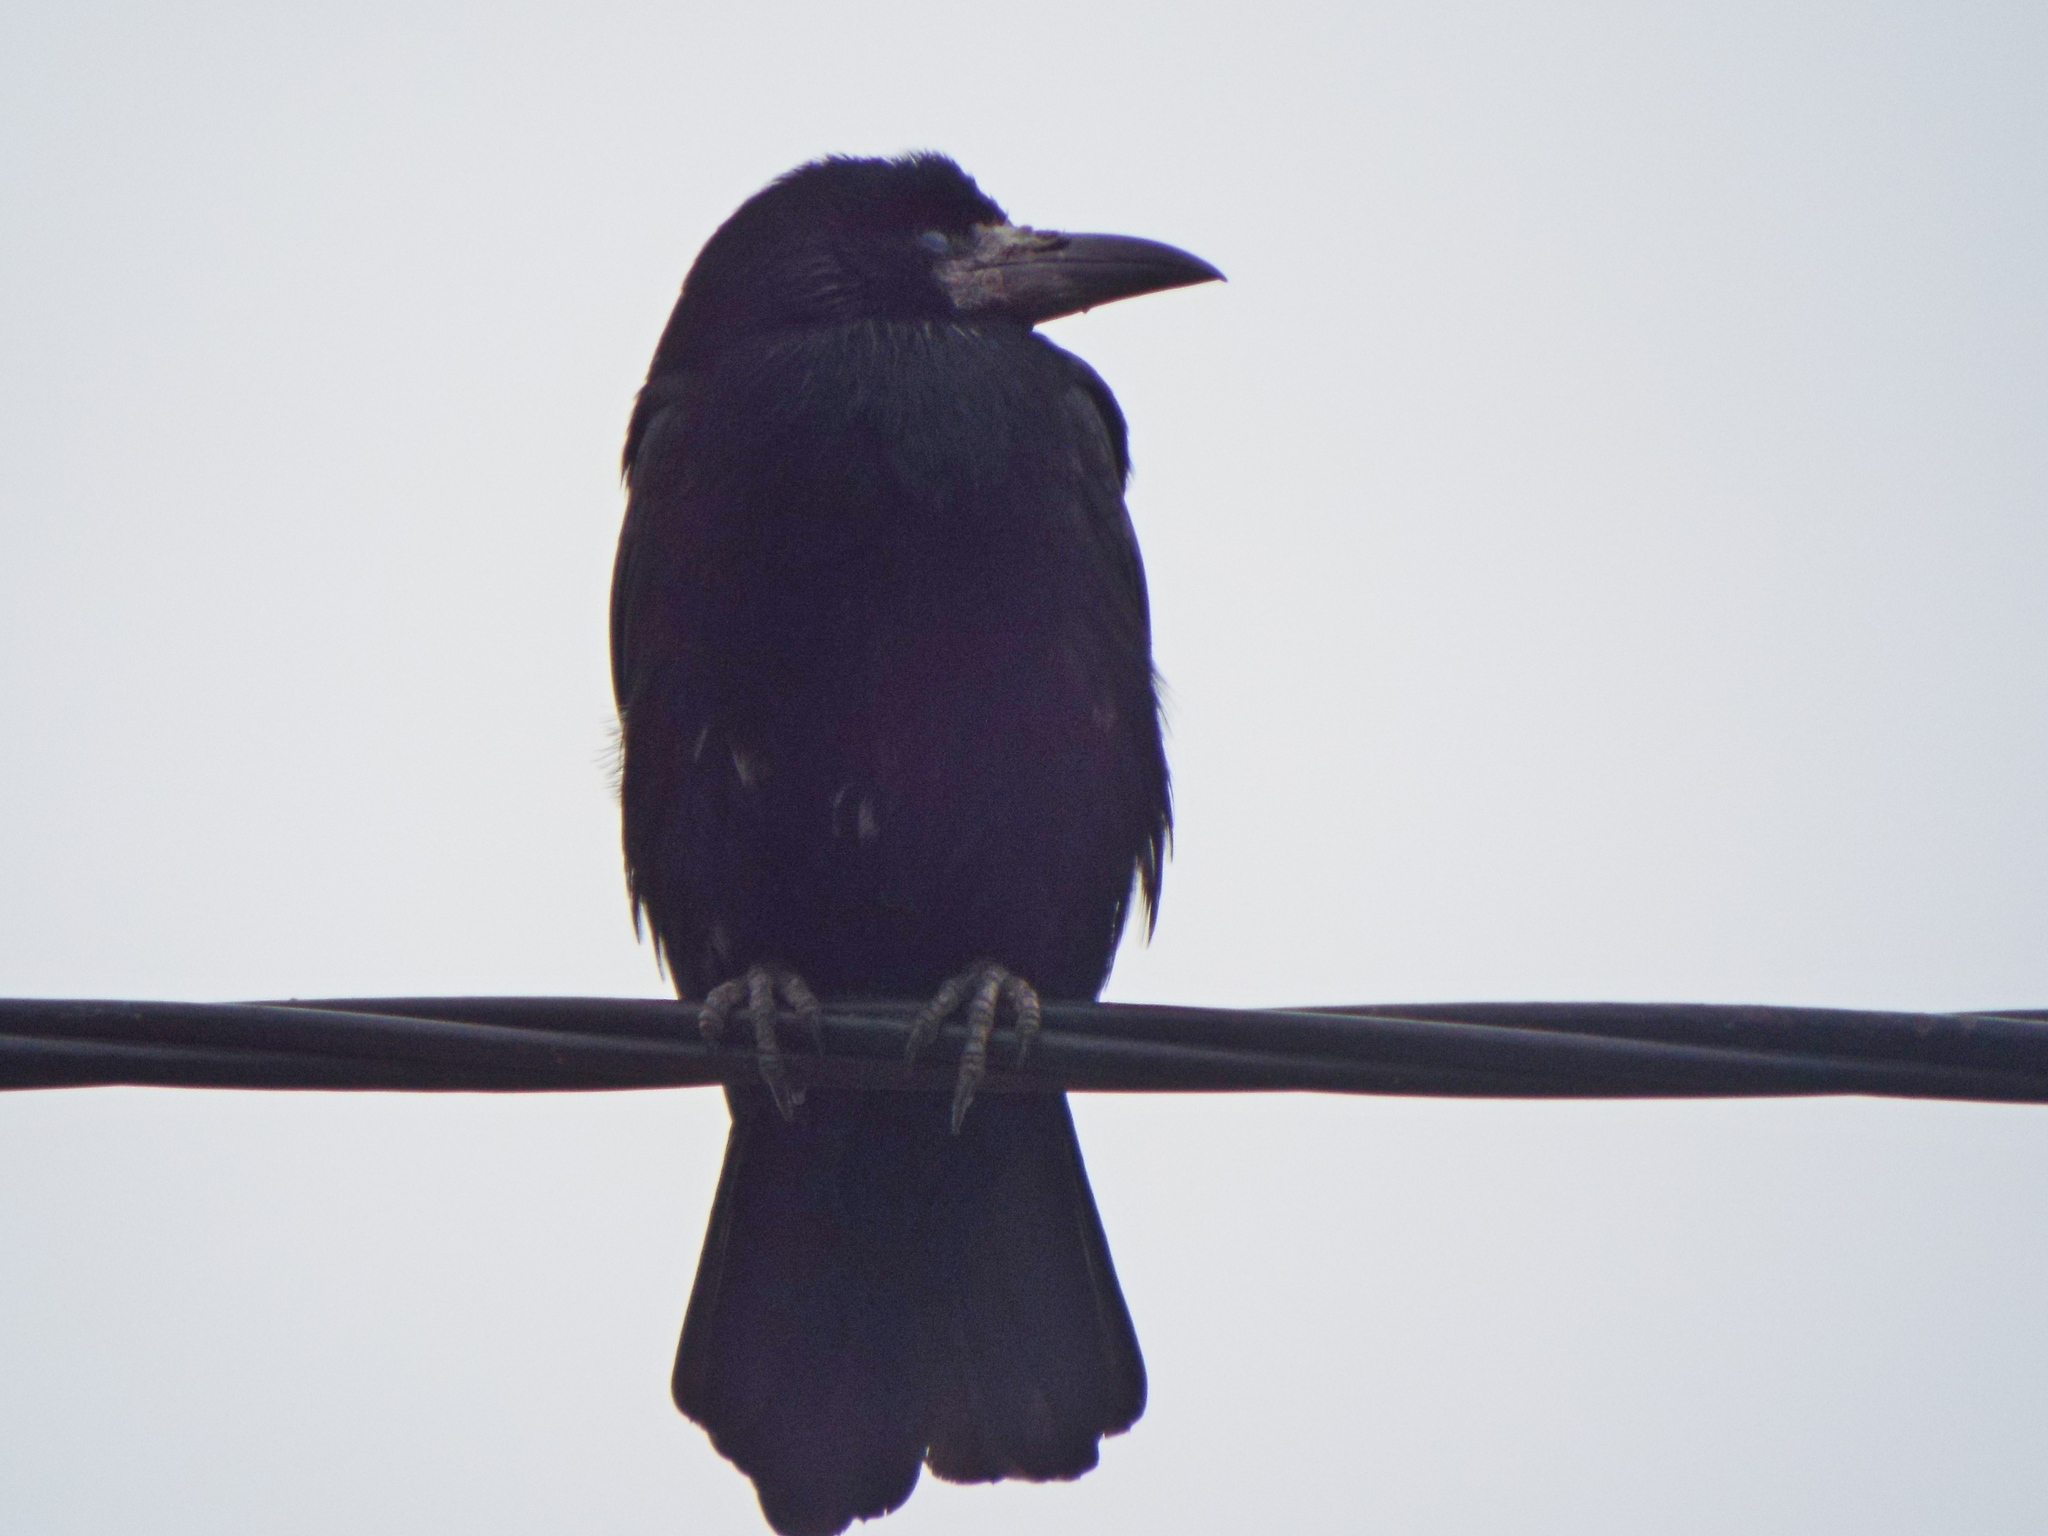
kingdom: Animalia
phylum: Chordata
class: Aves
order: Passeriformes
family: Corvidae
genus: Corvus
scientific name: Corvus frugilegus
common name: Rook
